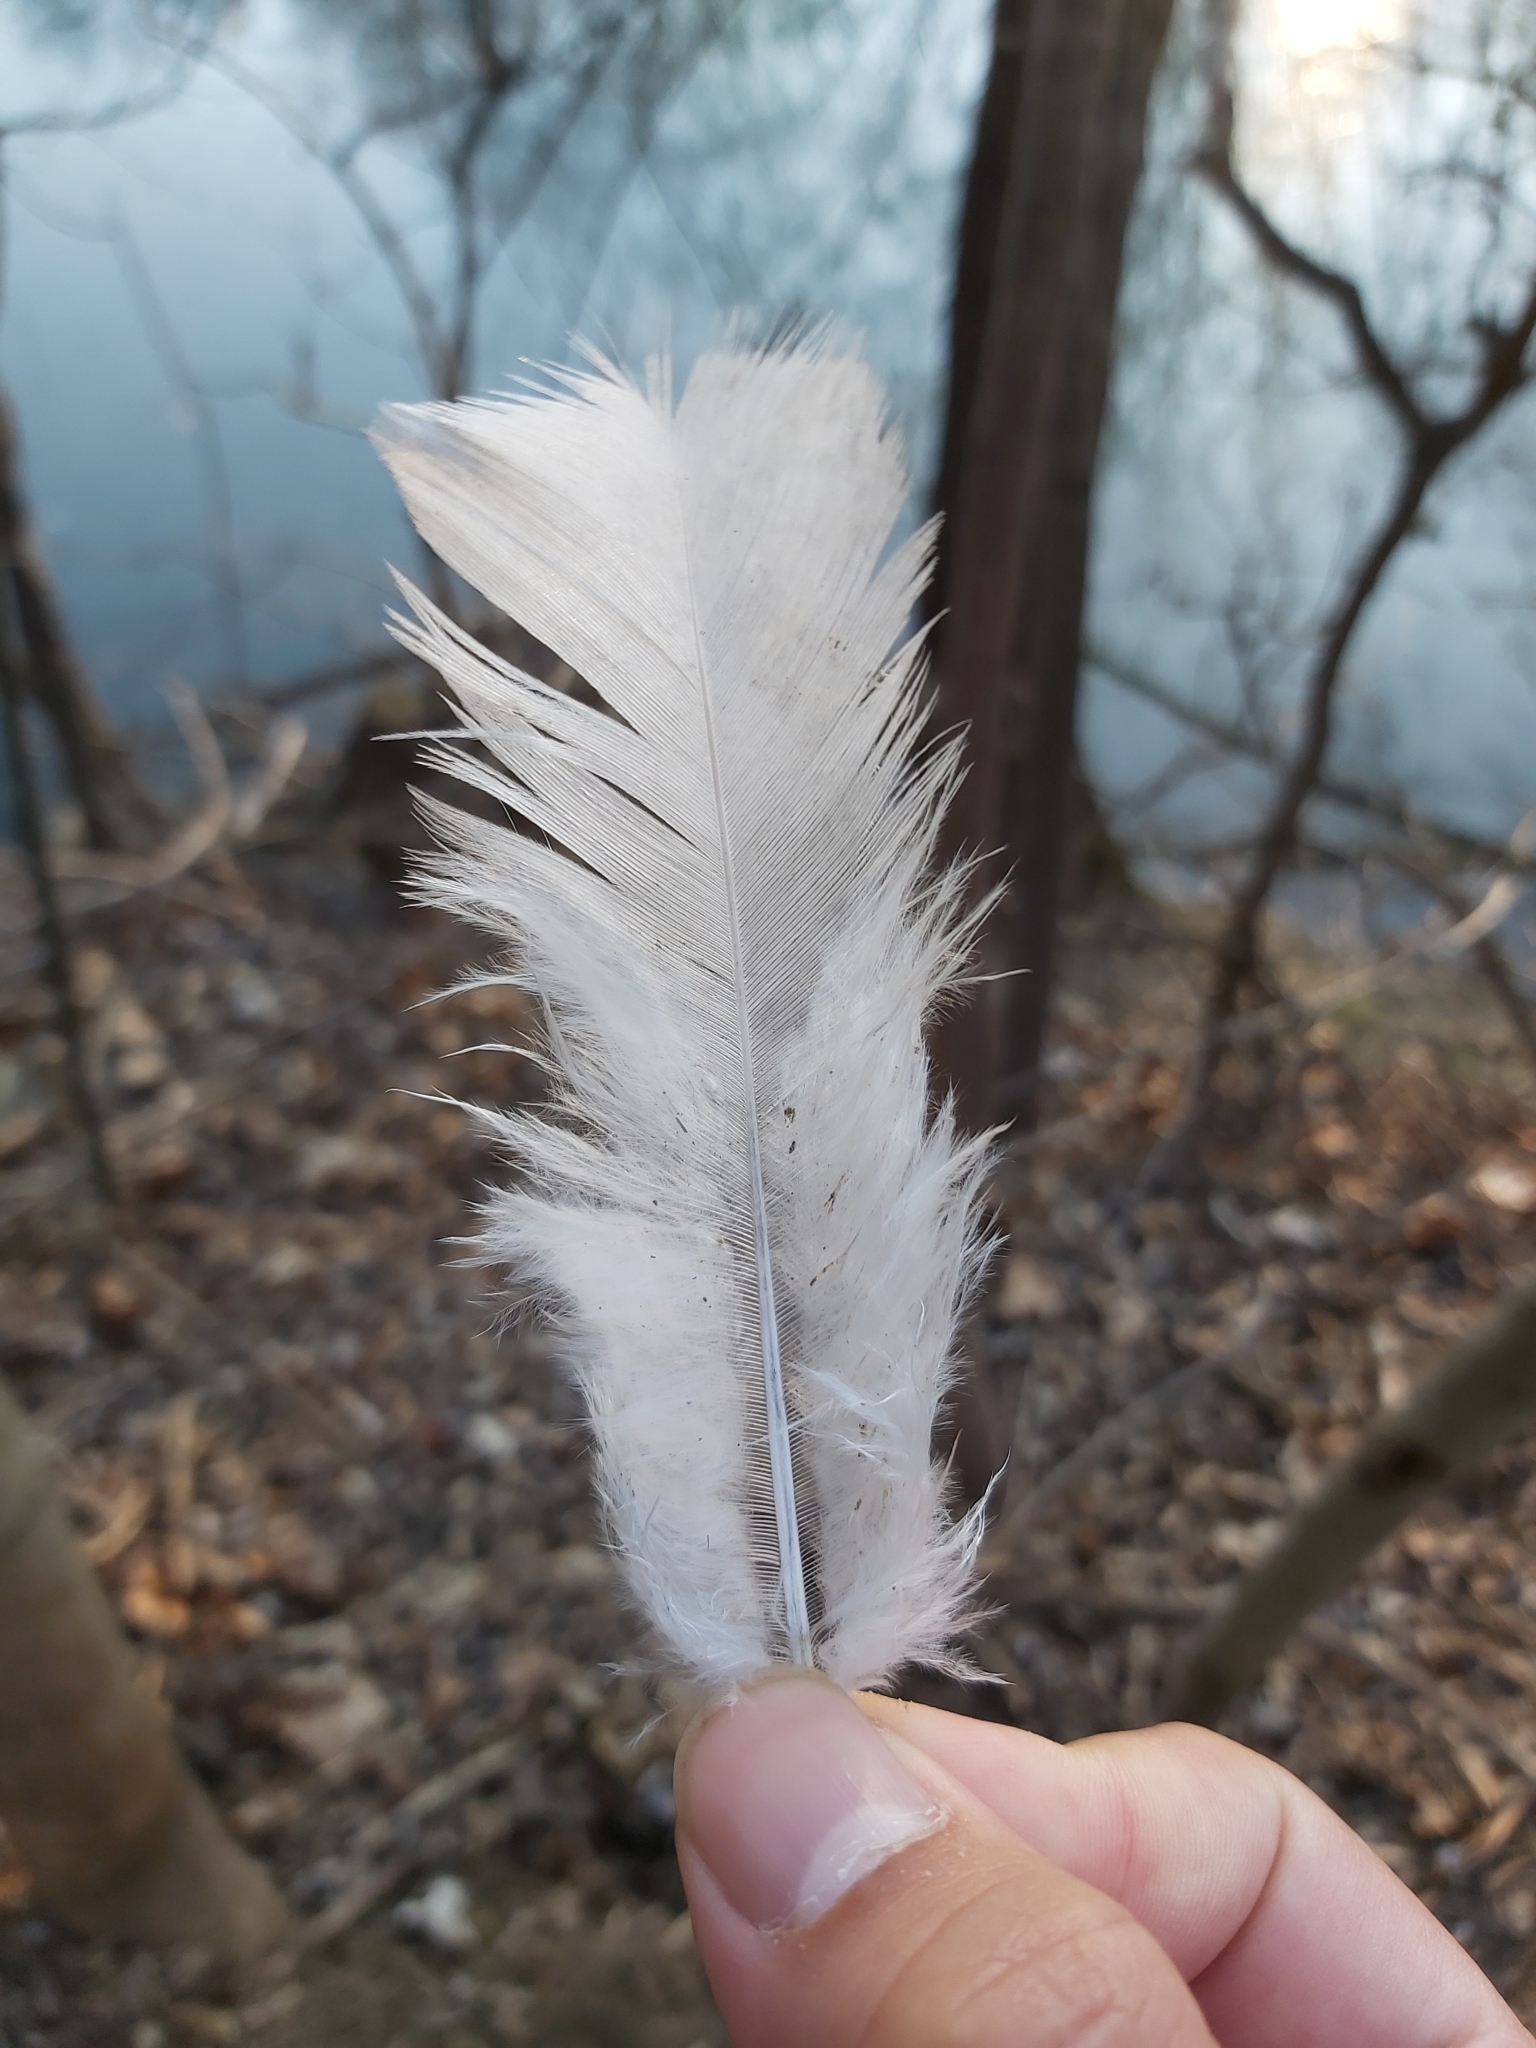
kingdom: Animalia
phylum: Chordata
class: Aves
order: Anseriformes
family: Anatidae
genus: Cygnus
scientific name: Cygnus olor
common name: Mute swan
